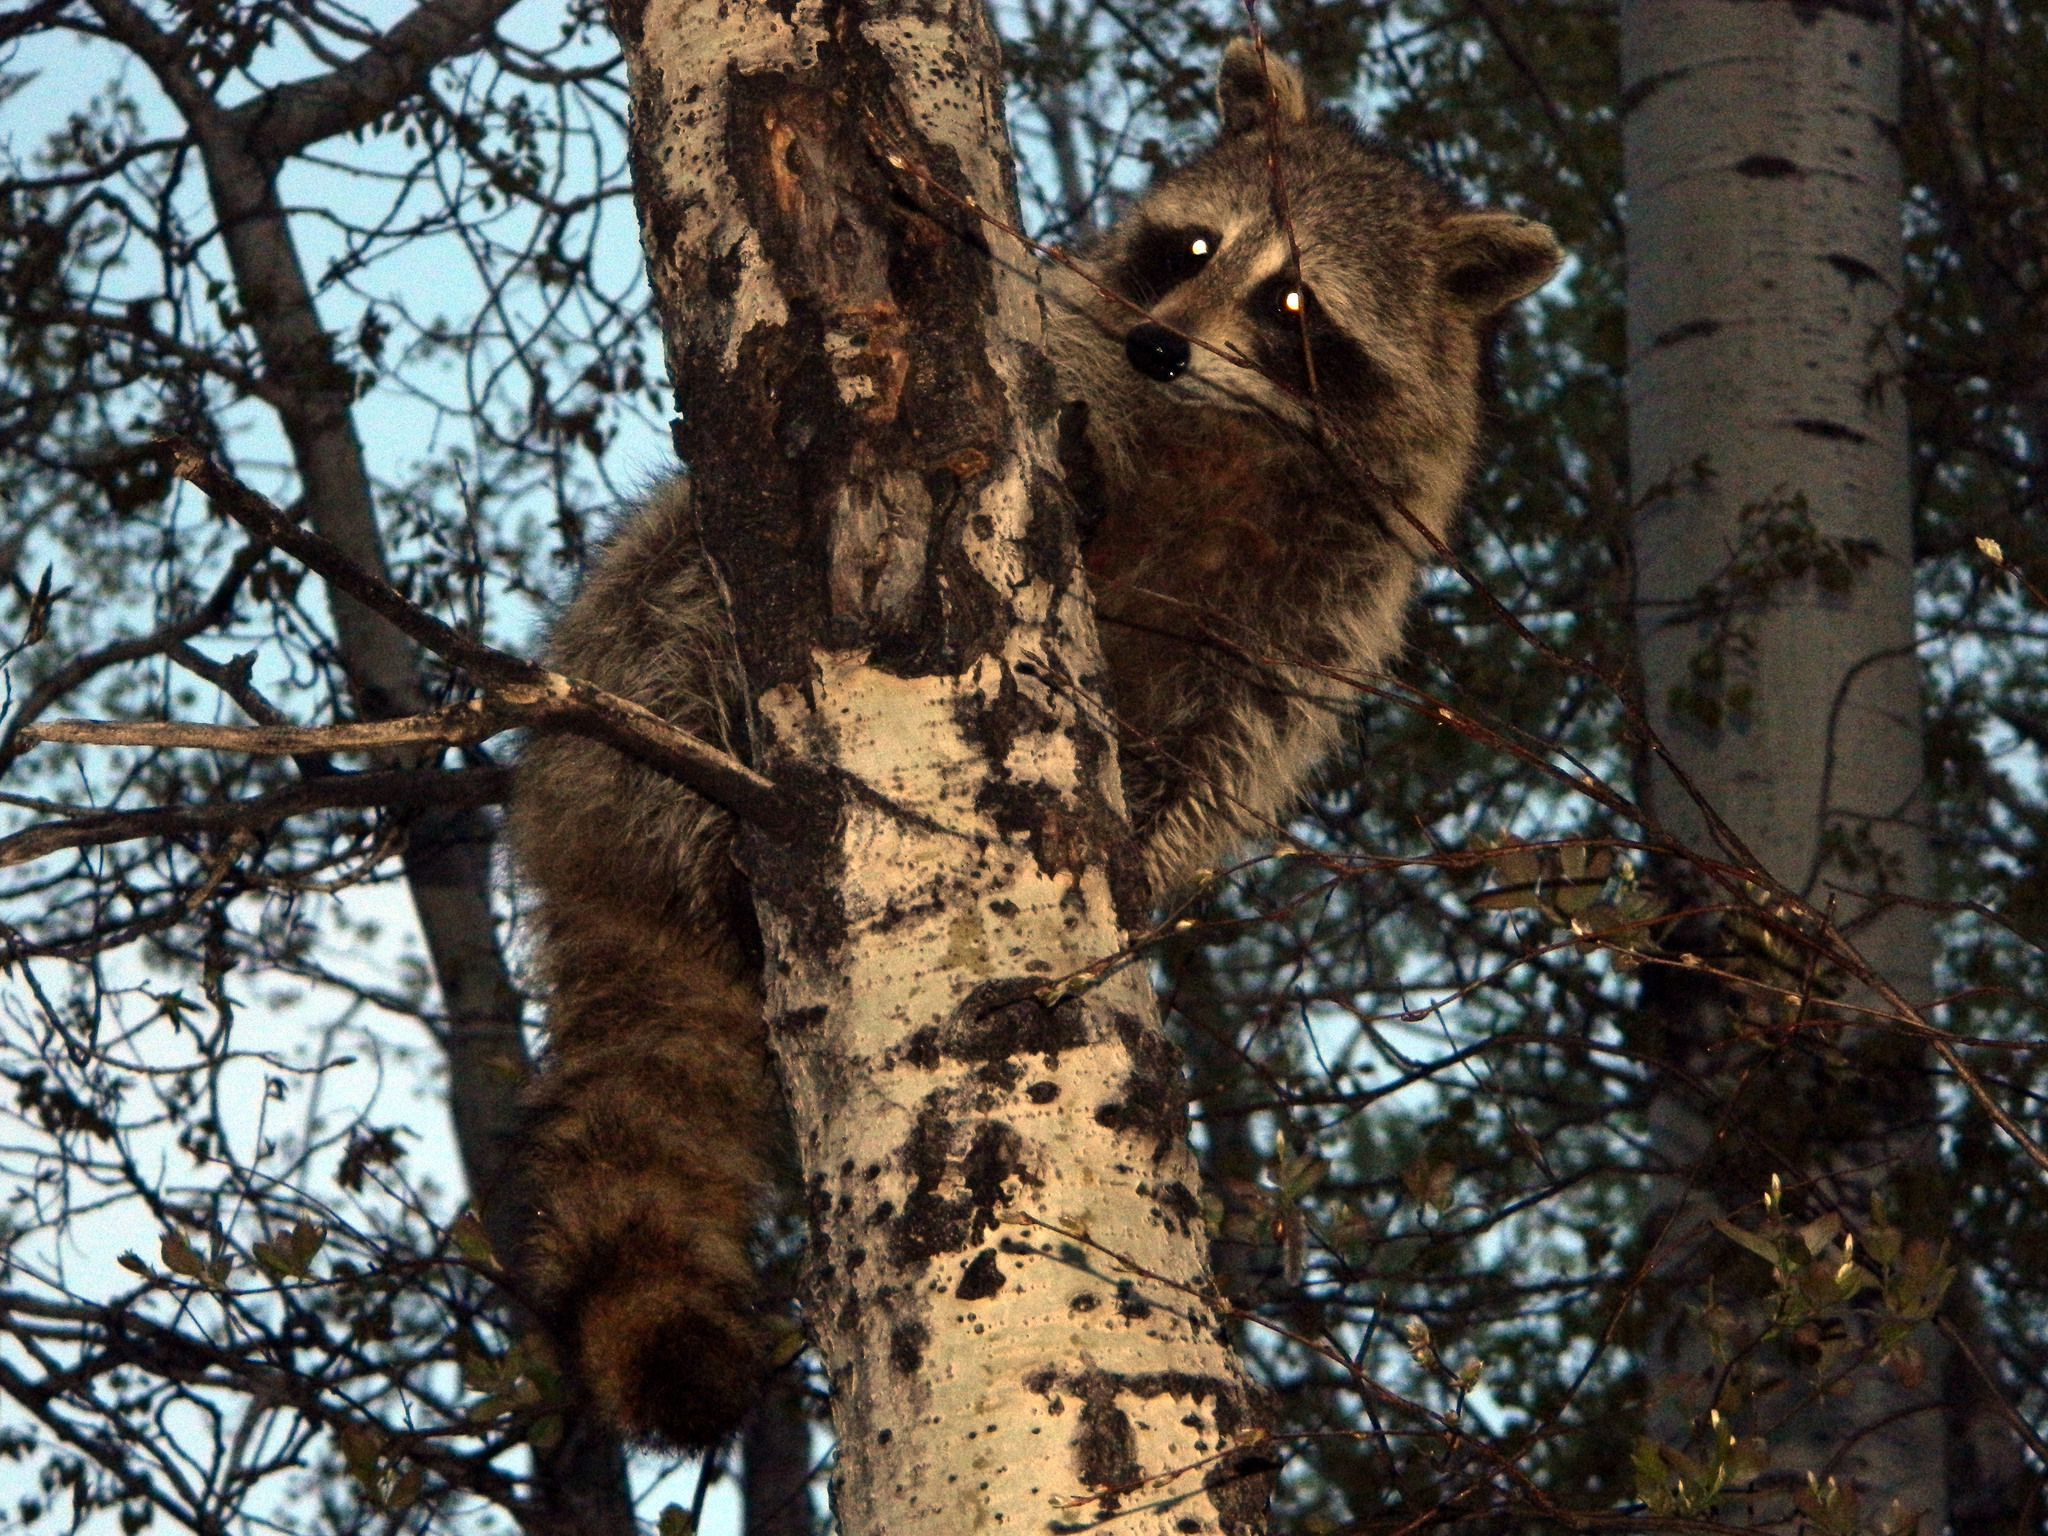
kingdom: Animalia
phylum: Chordata
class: Mammalia
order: Carnivora
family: Procyonidae
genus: Procyon
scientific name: Procyon lotor
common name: Raccoon
